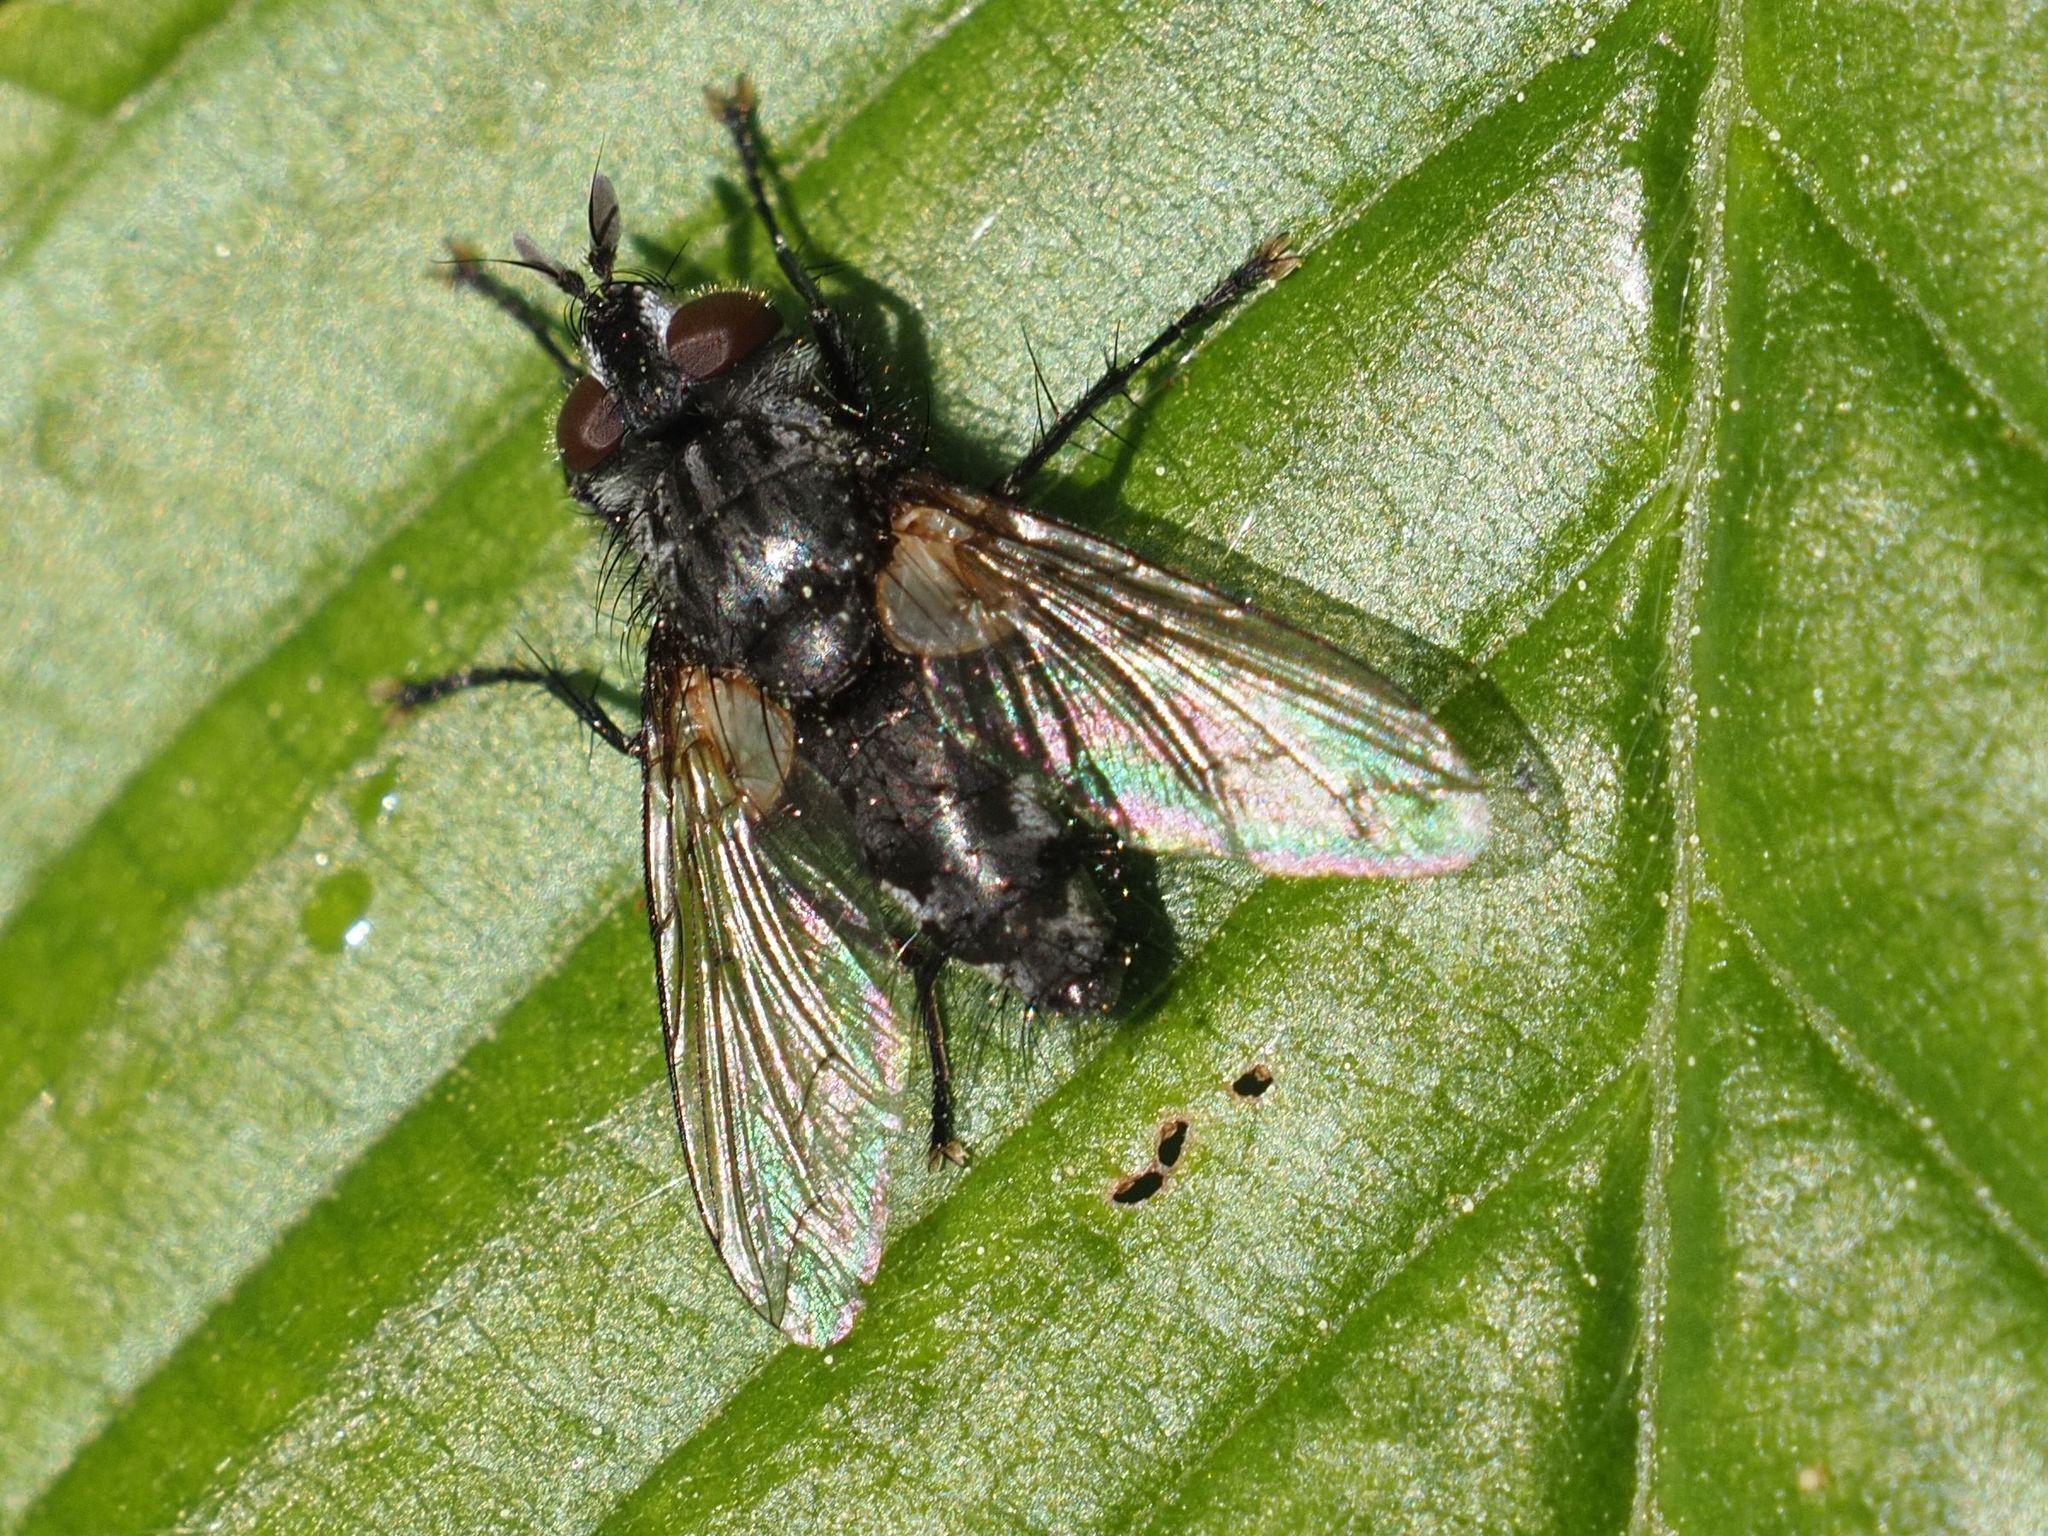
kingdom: Animalia
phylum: Arthropoda
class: Insecta
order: Diptera
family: Tachinidae
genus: Phorocera
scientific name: Phorocera obscura
